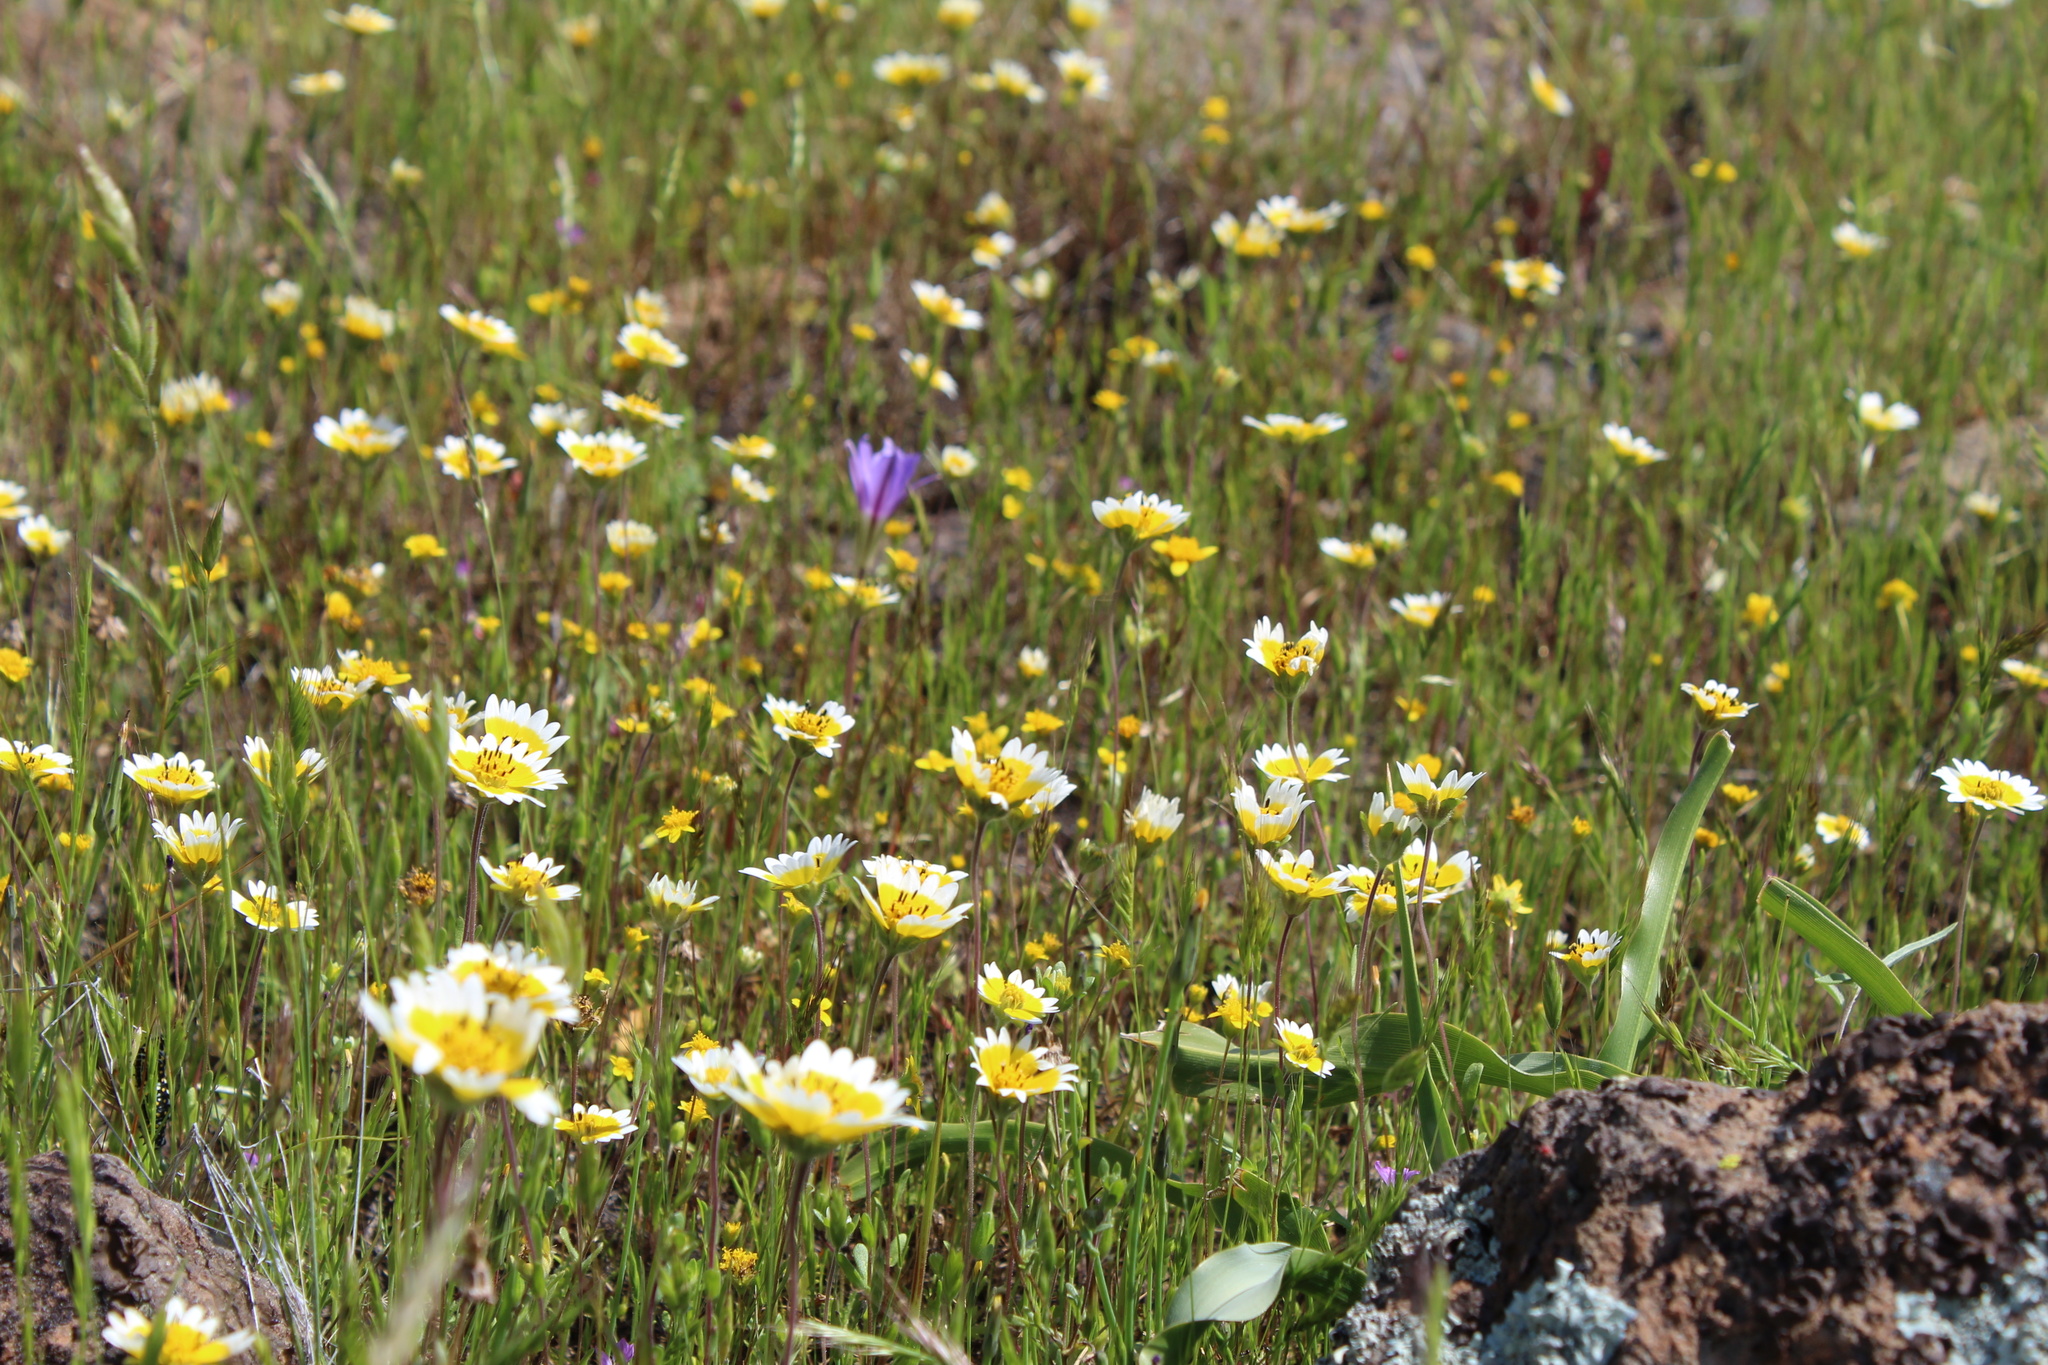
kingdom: Plantae
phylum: Tracheophyta
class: Magnoliopsida
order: Asterales
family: Asteraceae
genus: Layia
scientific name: Layia fremontii
